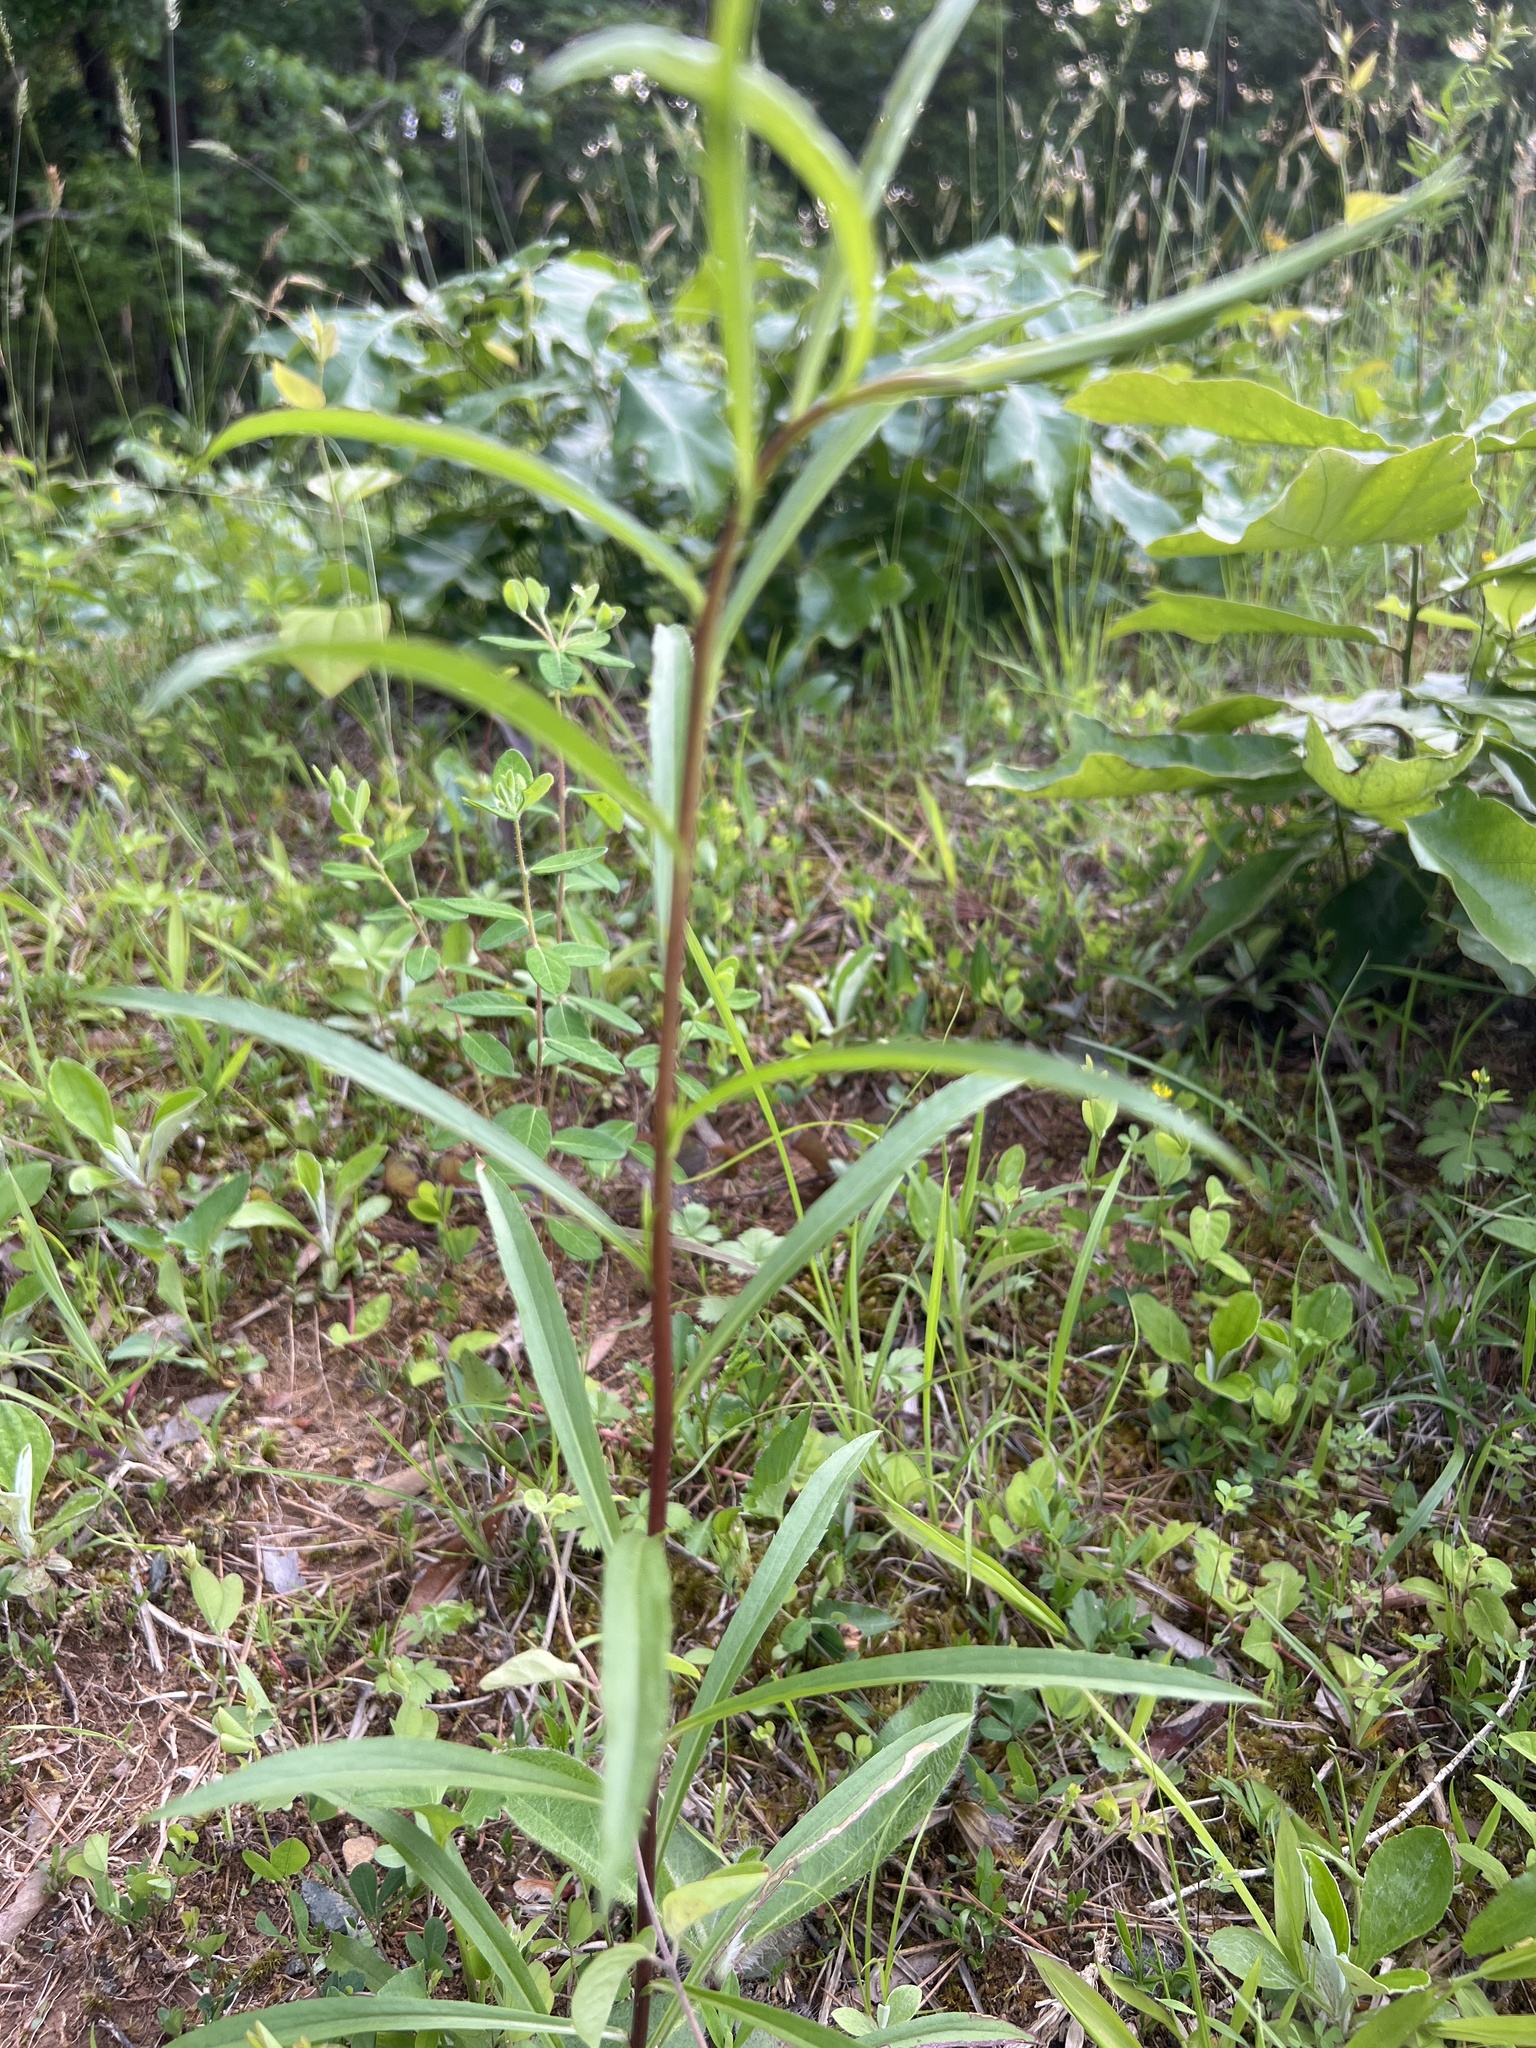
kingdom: Plantae
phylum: Tracheophyta
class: Magnoliopsida
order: Asterales
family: Asteraceae
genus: Solidago
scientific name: Solidago pinetorum
